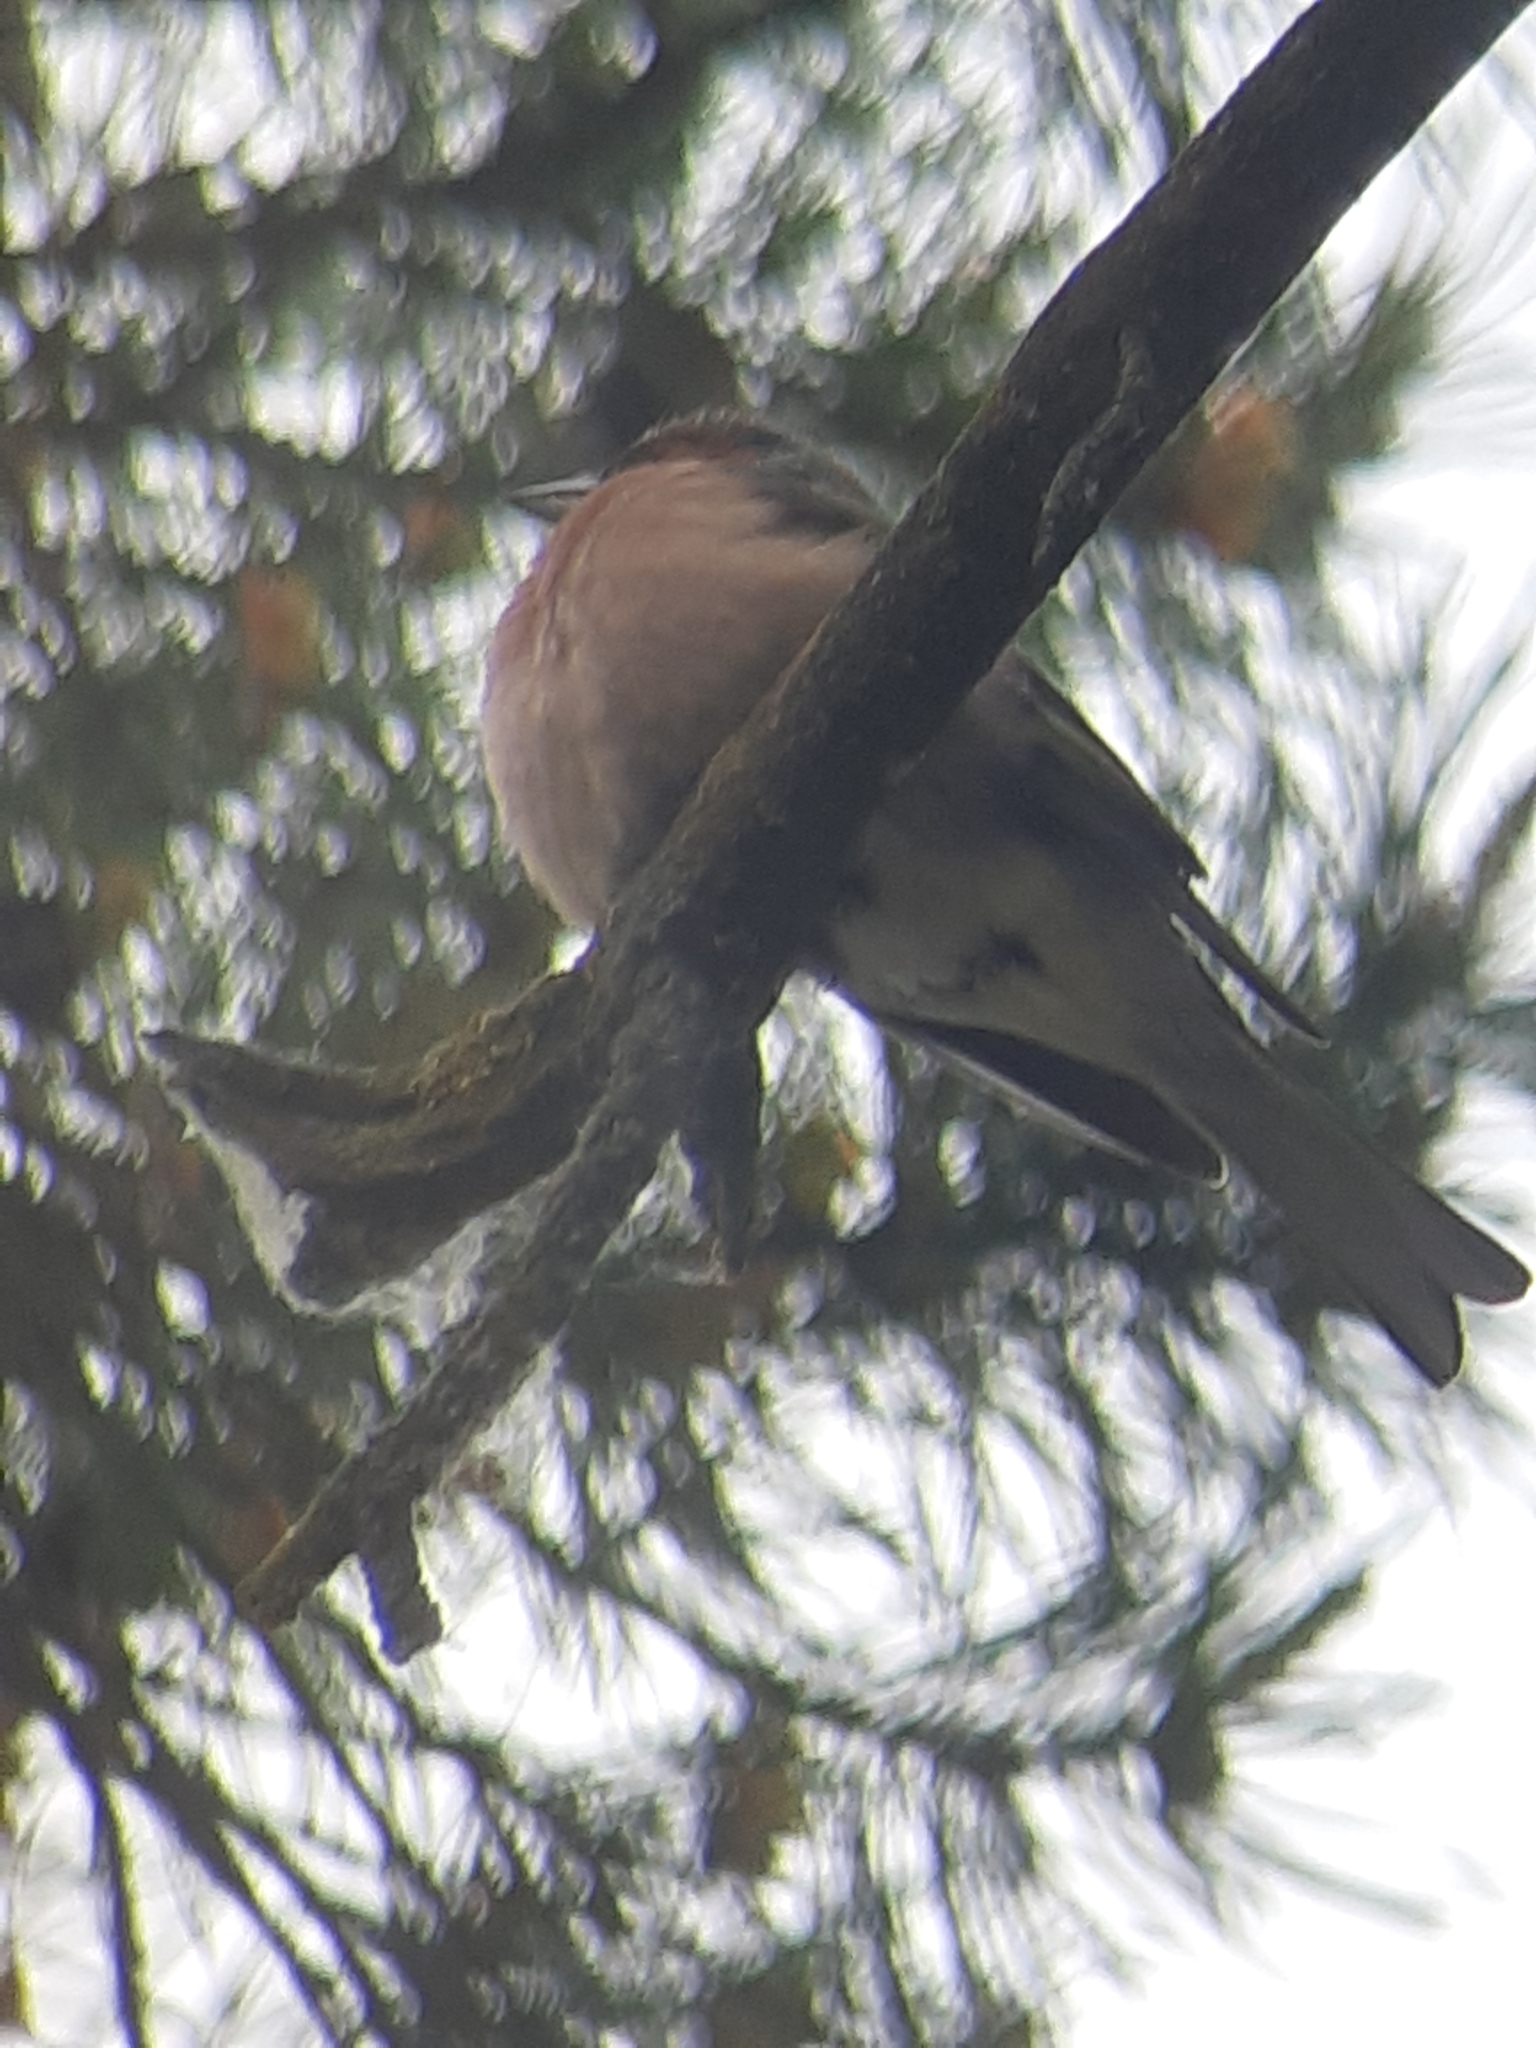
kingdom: Animalia
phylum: Chordata
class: Aves
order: Passeriformes
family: Fringillidae
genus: Fringilla
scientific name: Fringilla coelebs
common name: Common chaffinch
